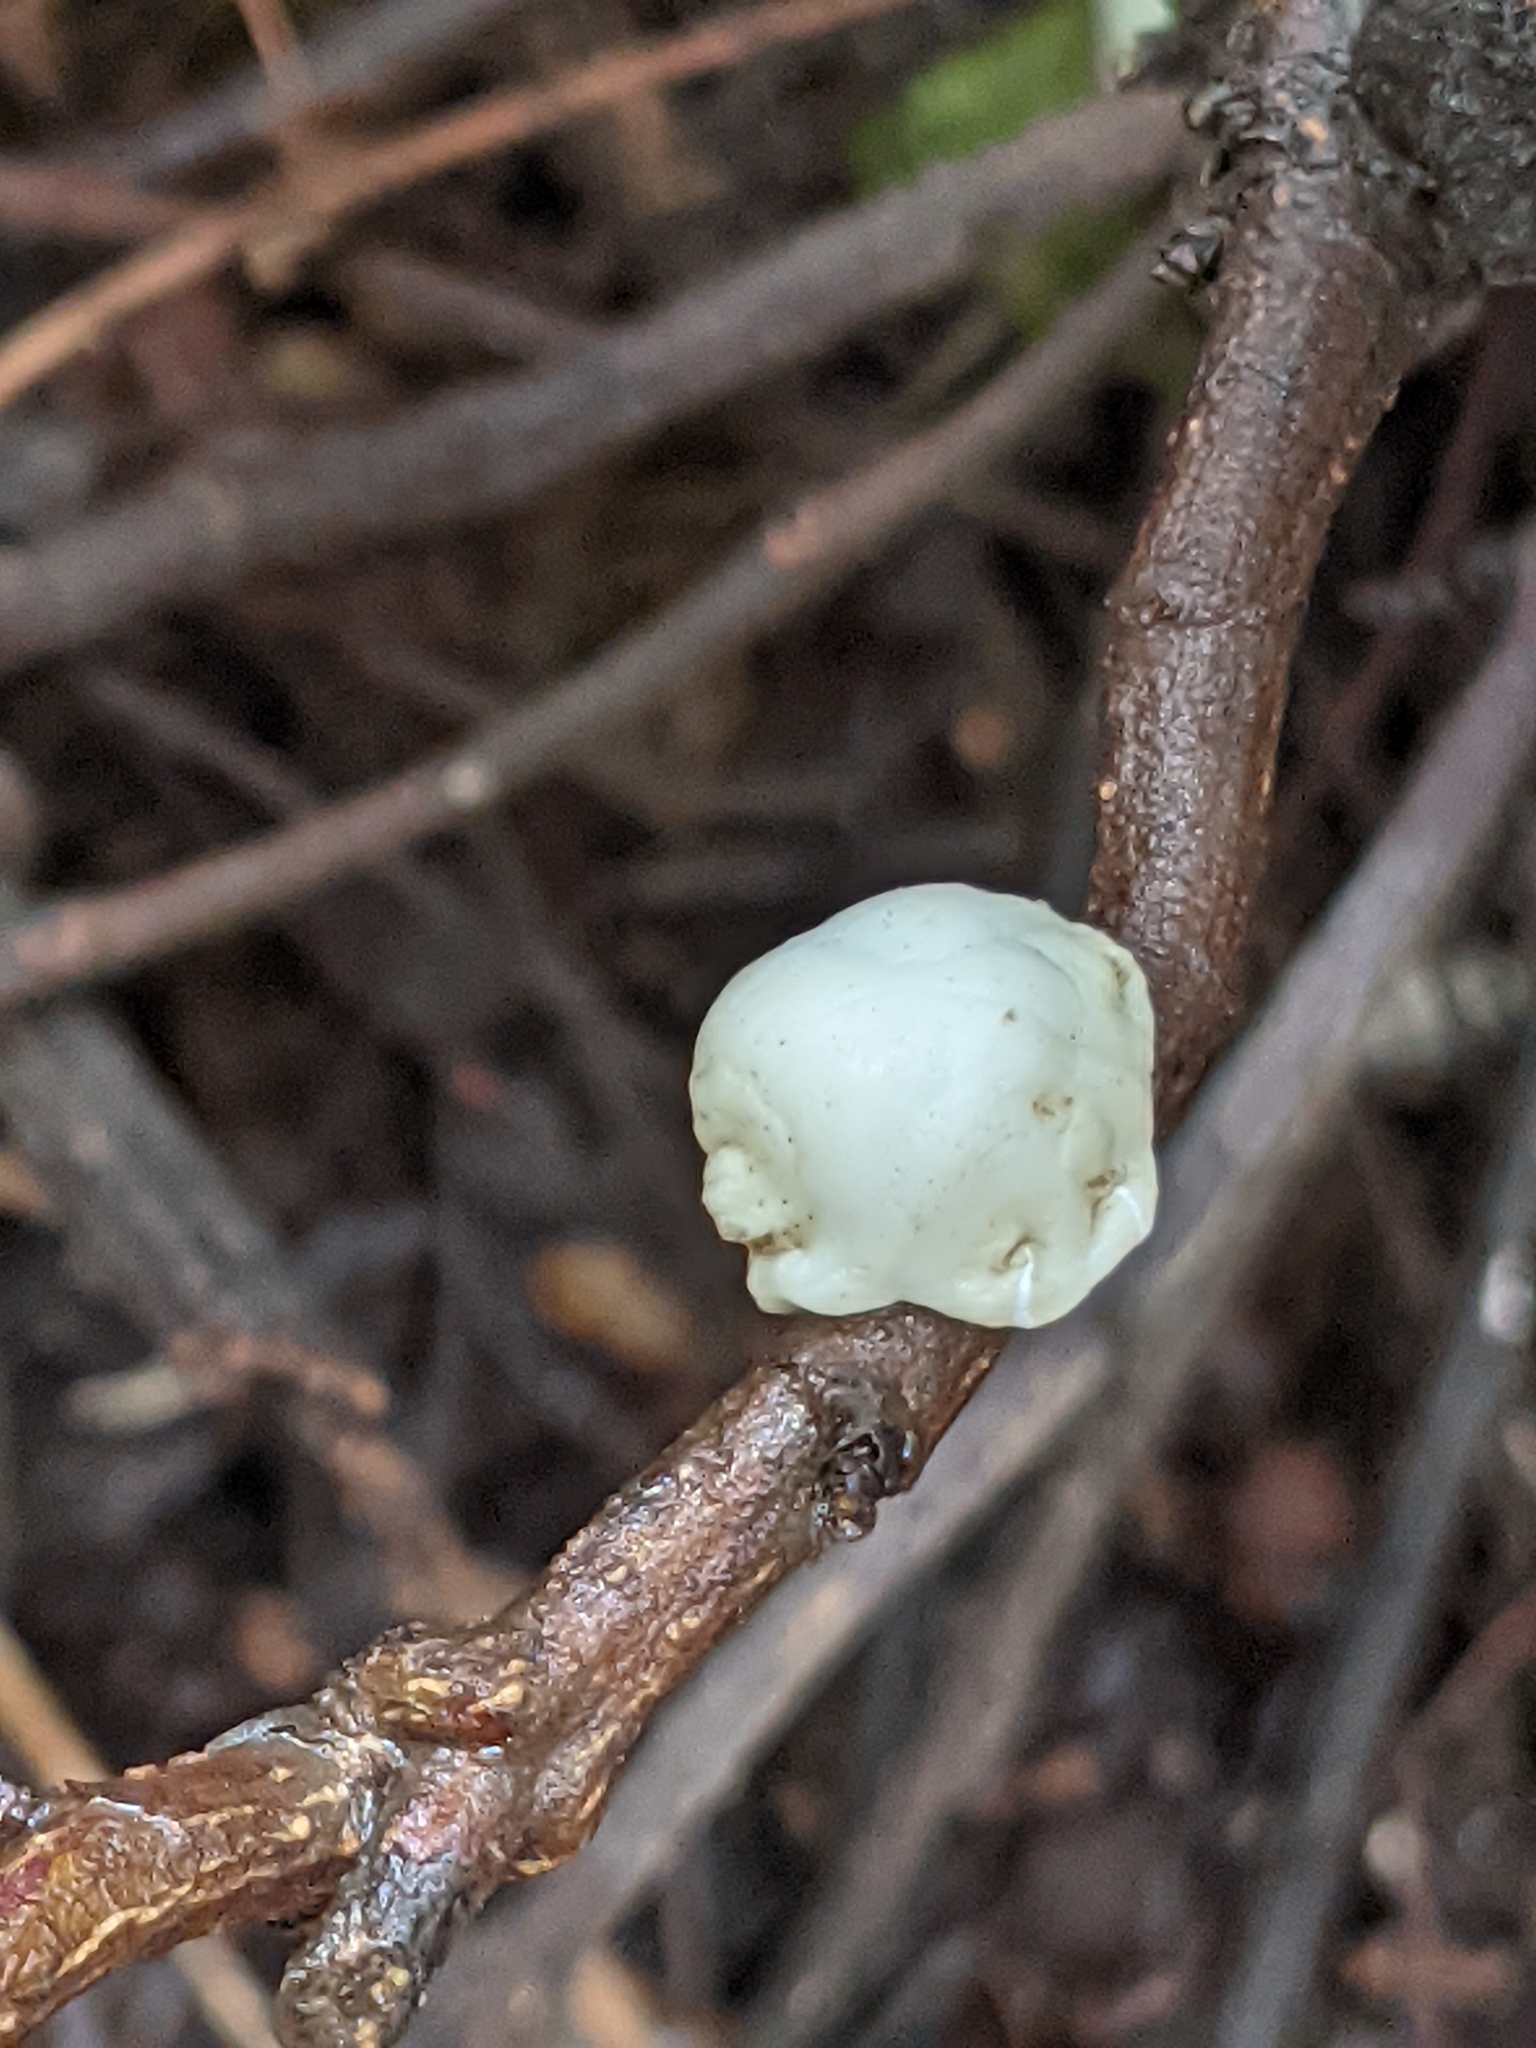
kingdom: Animalia
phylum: Arthropoda
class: Insecta
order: Hemiptera
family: Coccidae
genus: Ceroplastes
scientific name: Ceroplastes sinensis
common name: Hard wax scale
